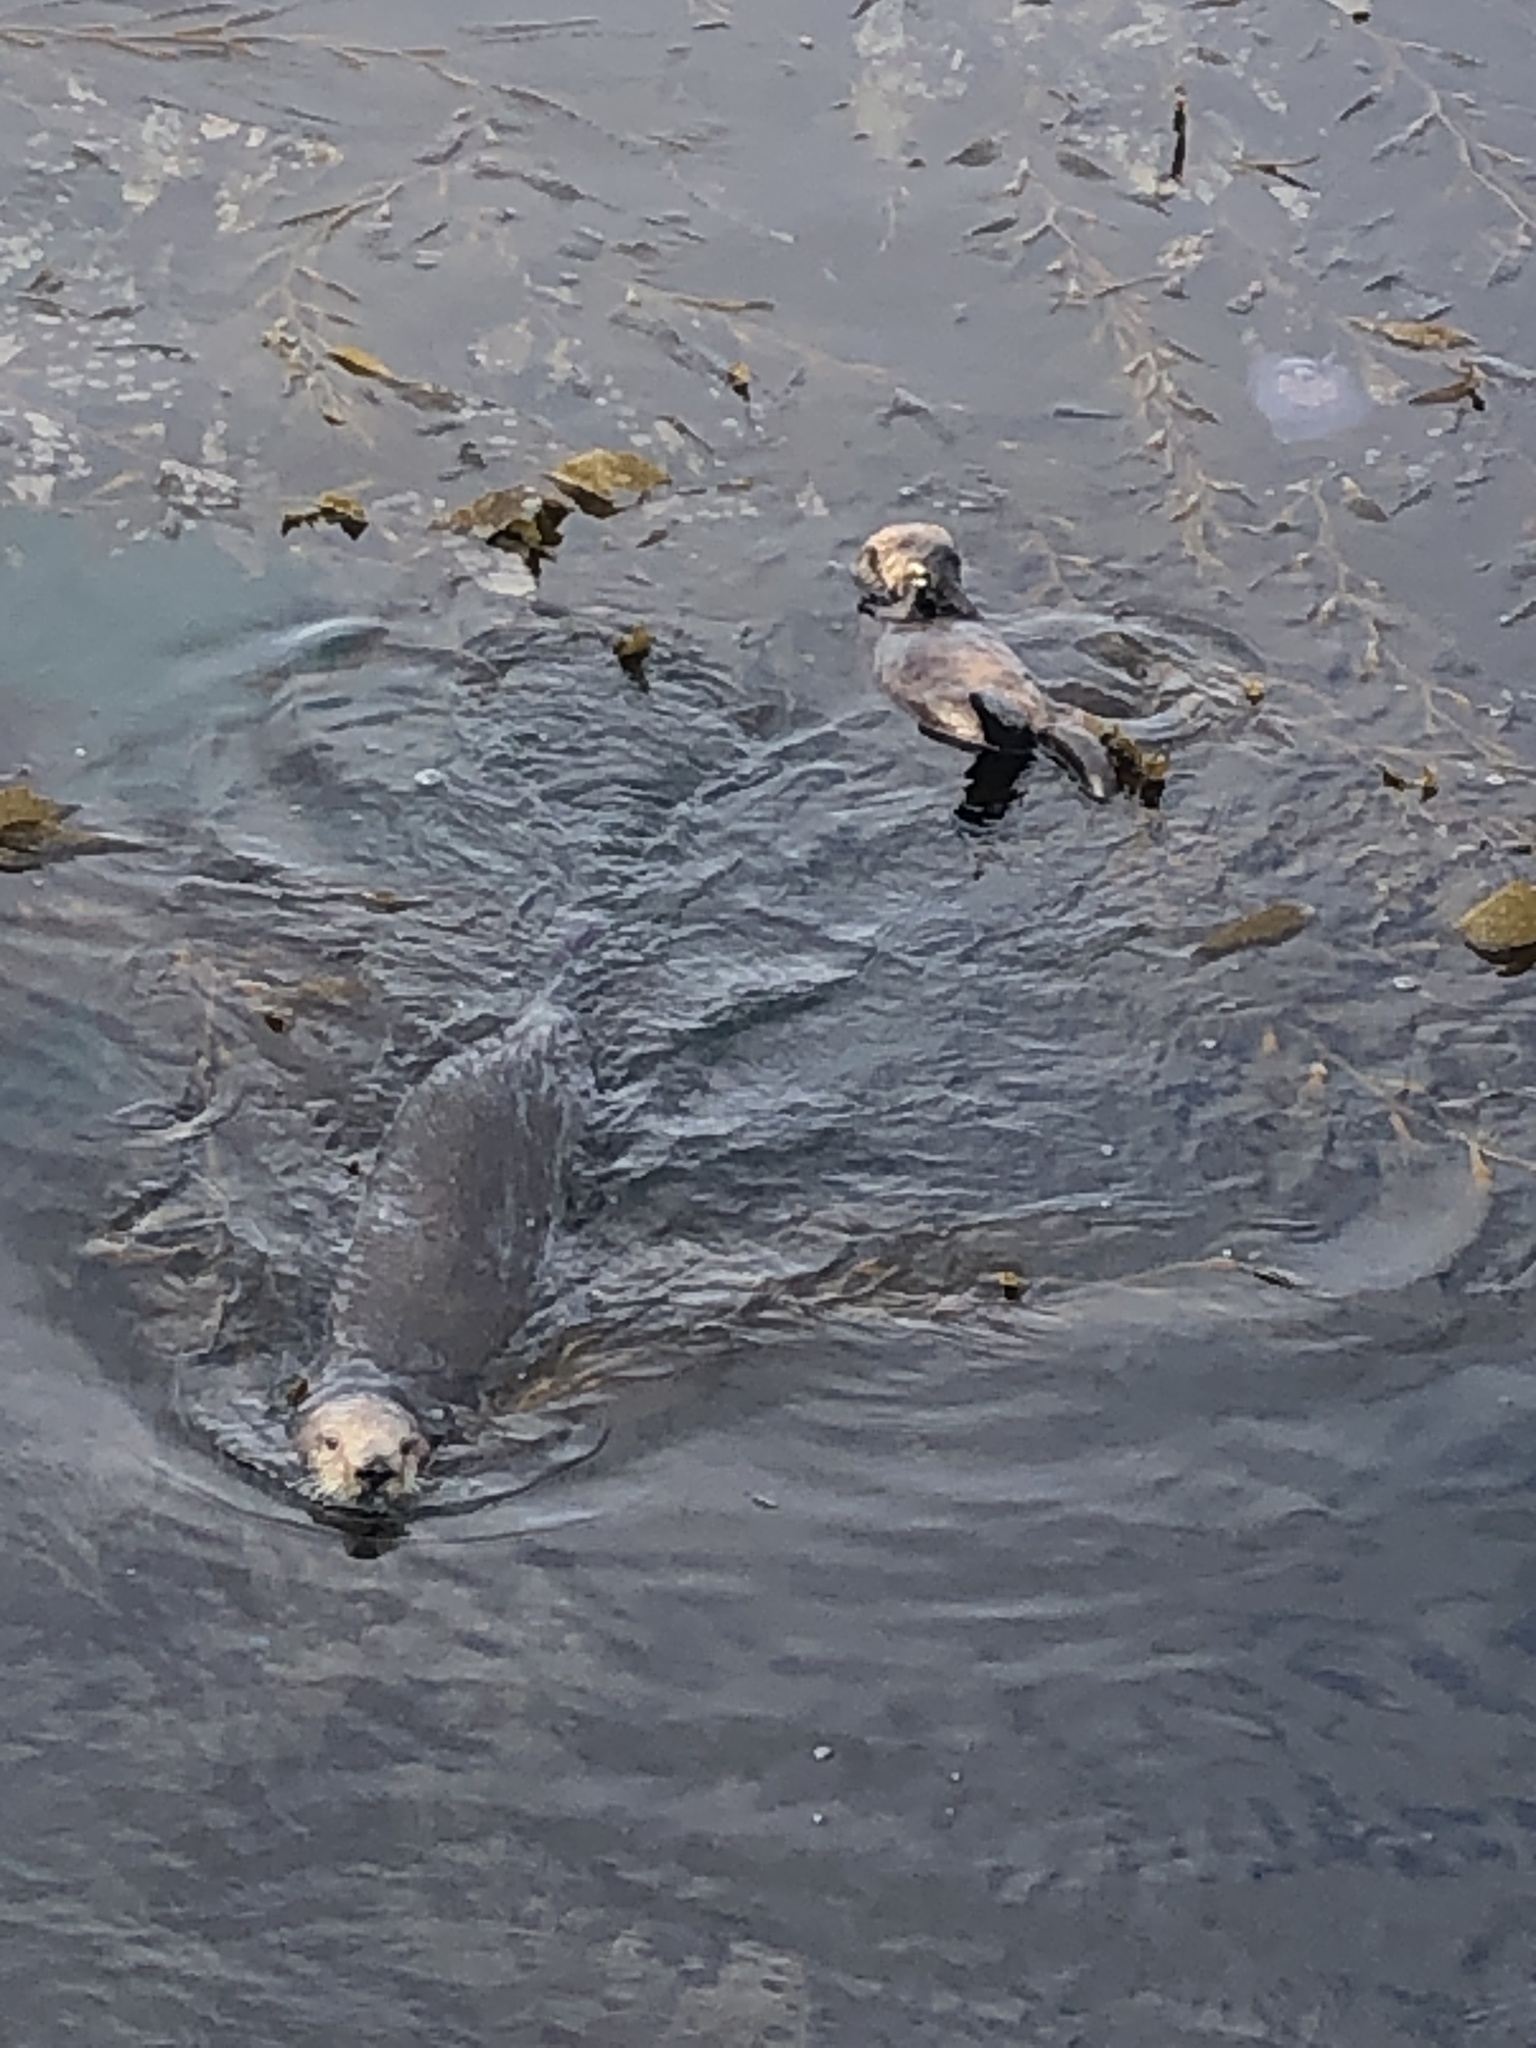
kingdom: Animalia
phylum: Chordata
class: Mammalia
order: Carnivora
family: Mustelidae
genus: Enhydra
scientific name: Enhydra lutris
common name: Sea otter
